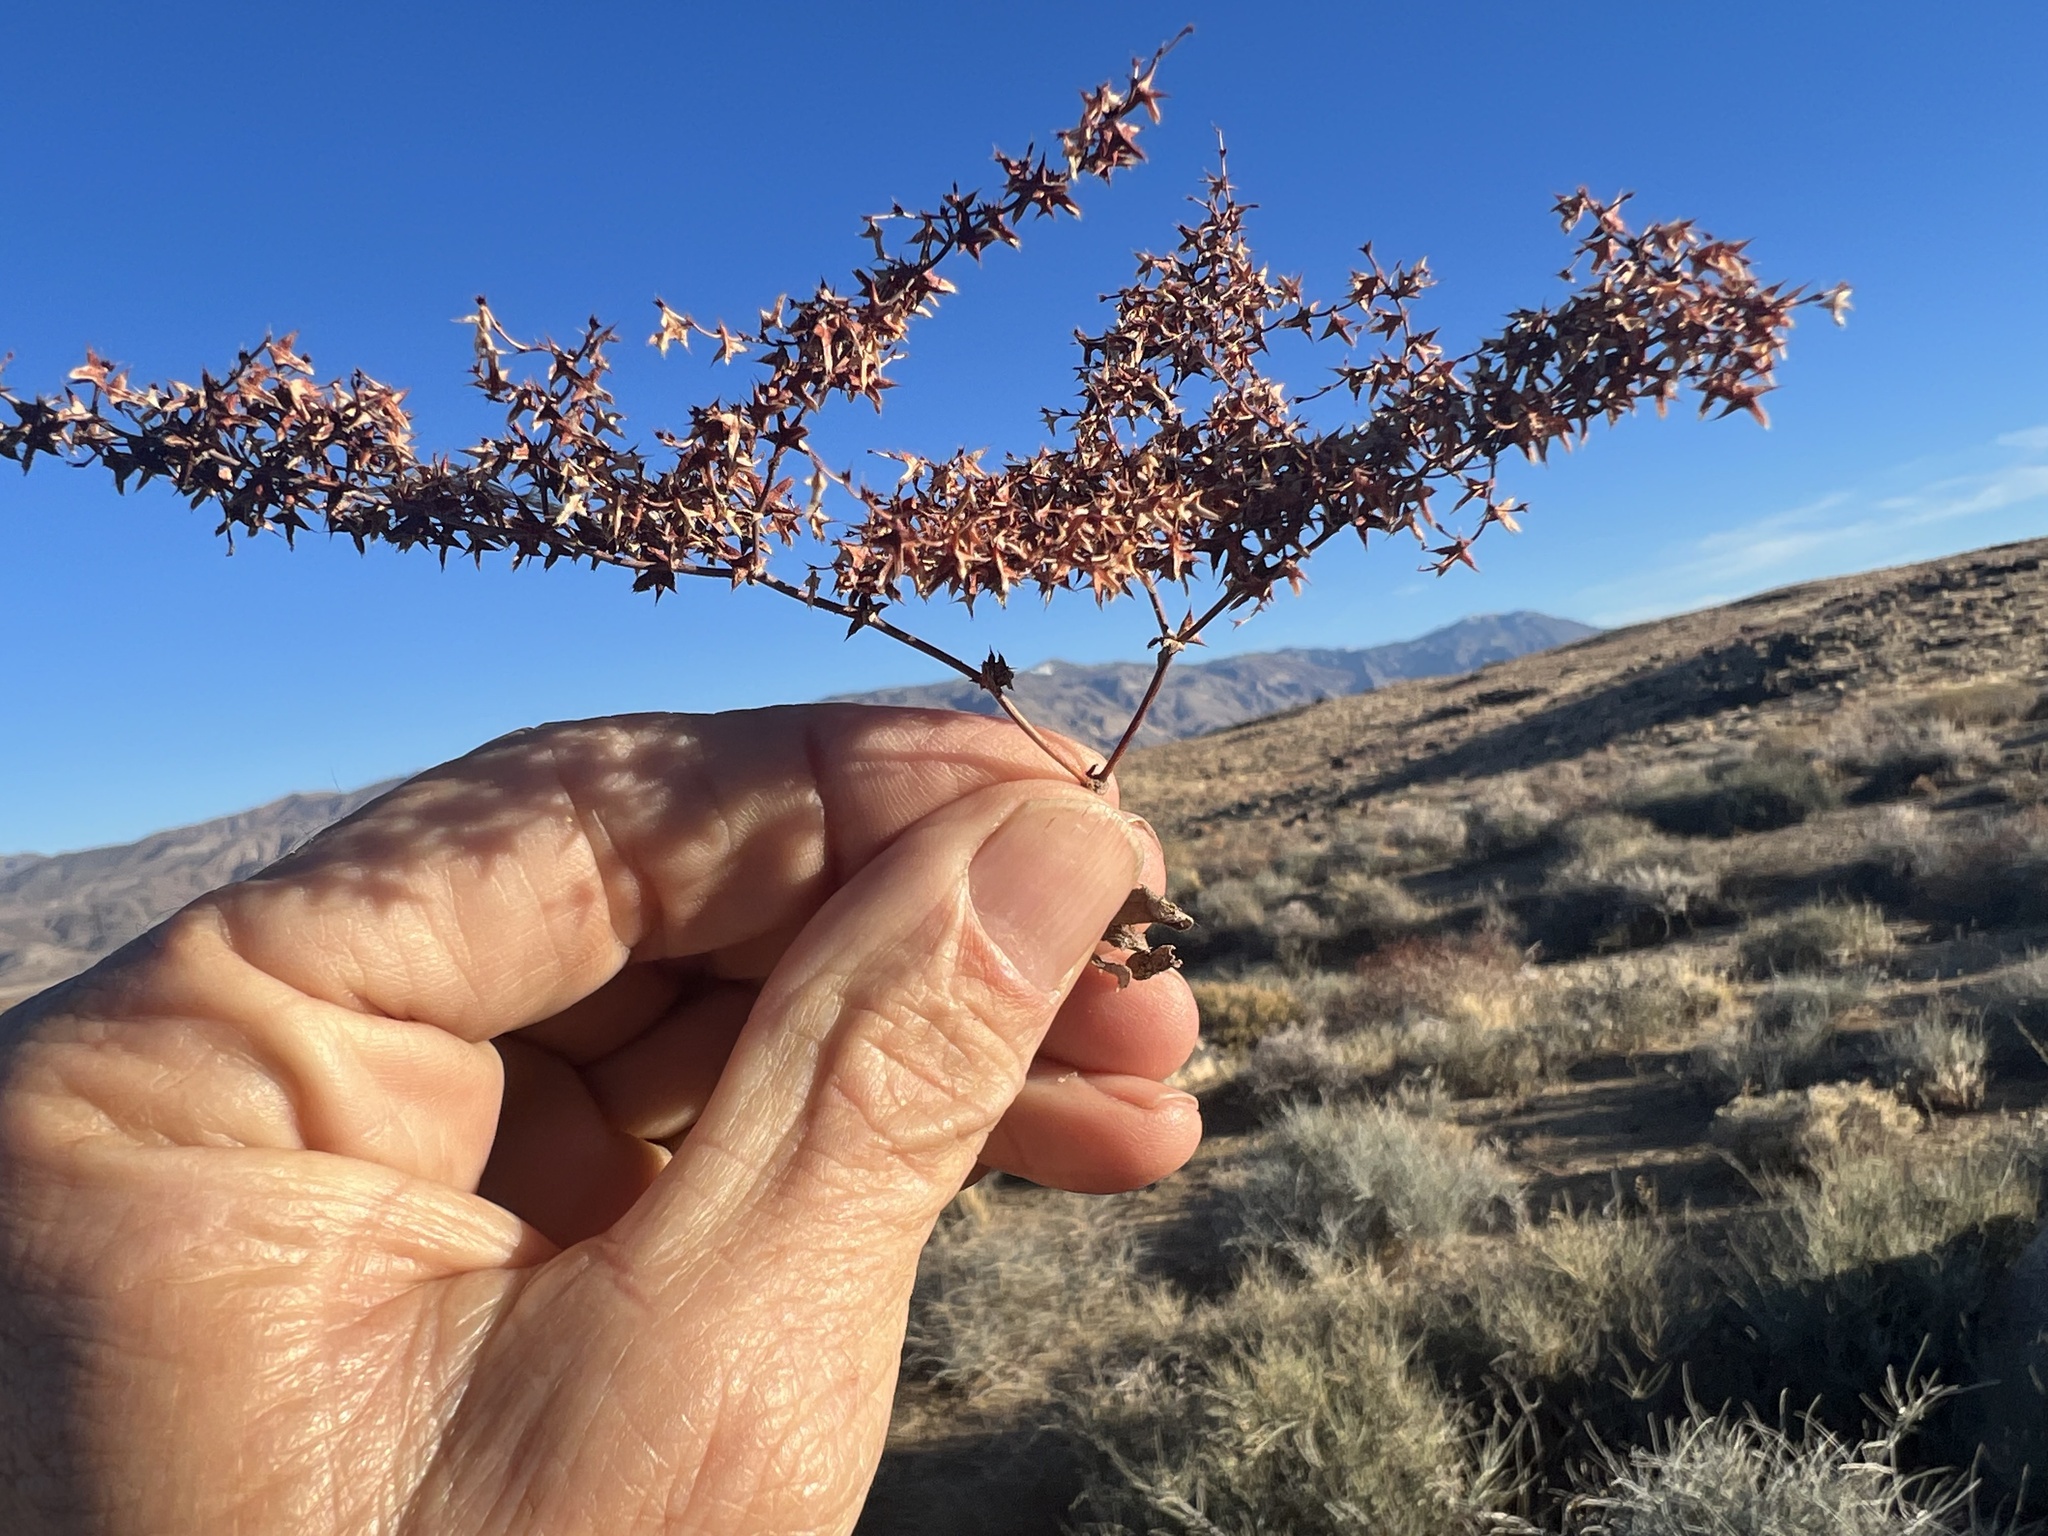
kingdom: Plantae
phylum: Tracheophyta
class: Magnoliopsida
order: Caryophyllales
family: Polygonaceae
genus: Centrostegia
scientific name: Centrostegia thurberi
